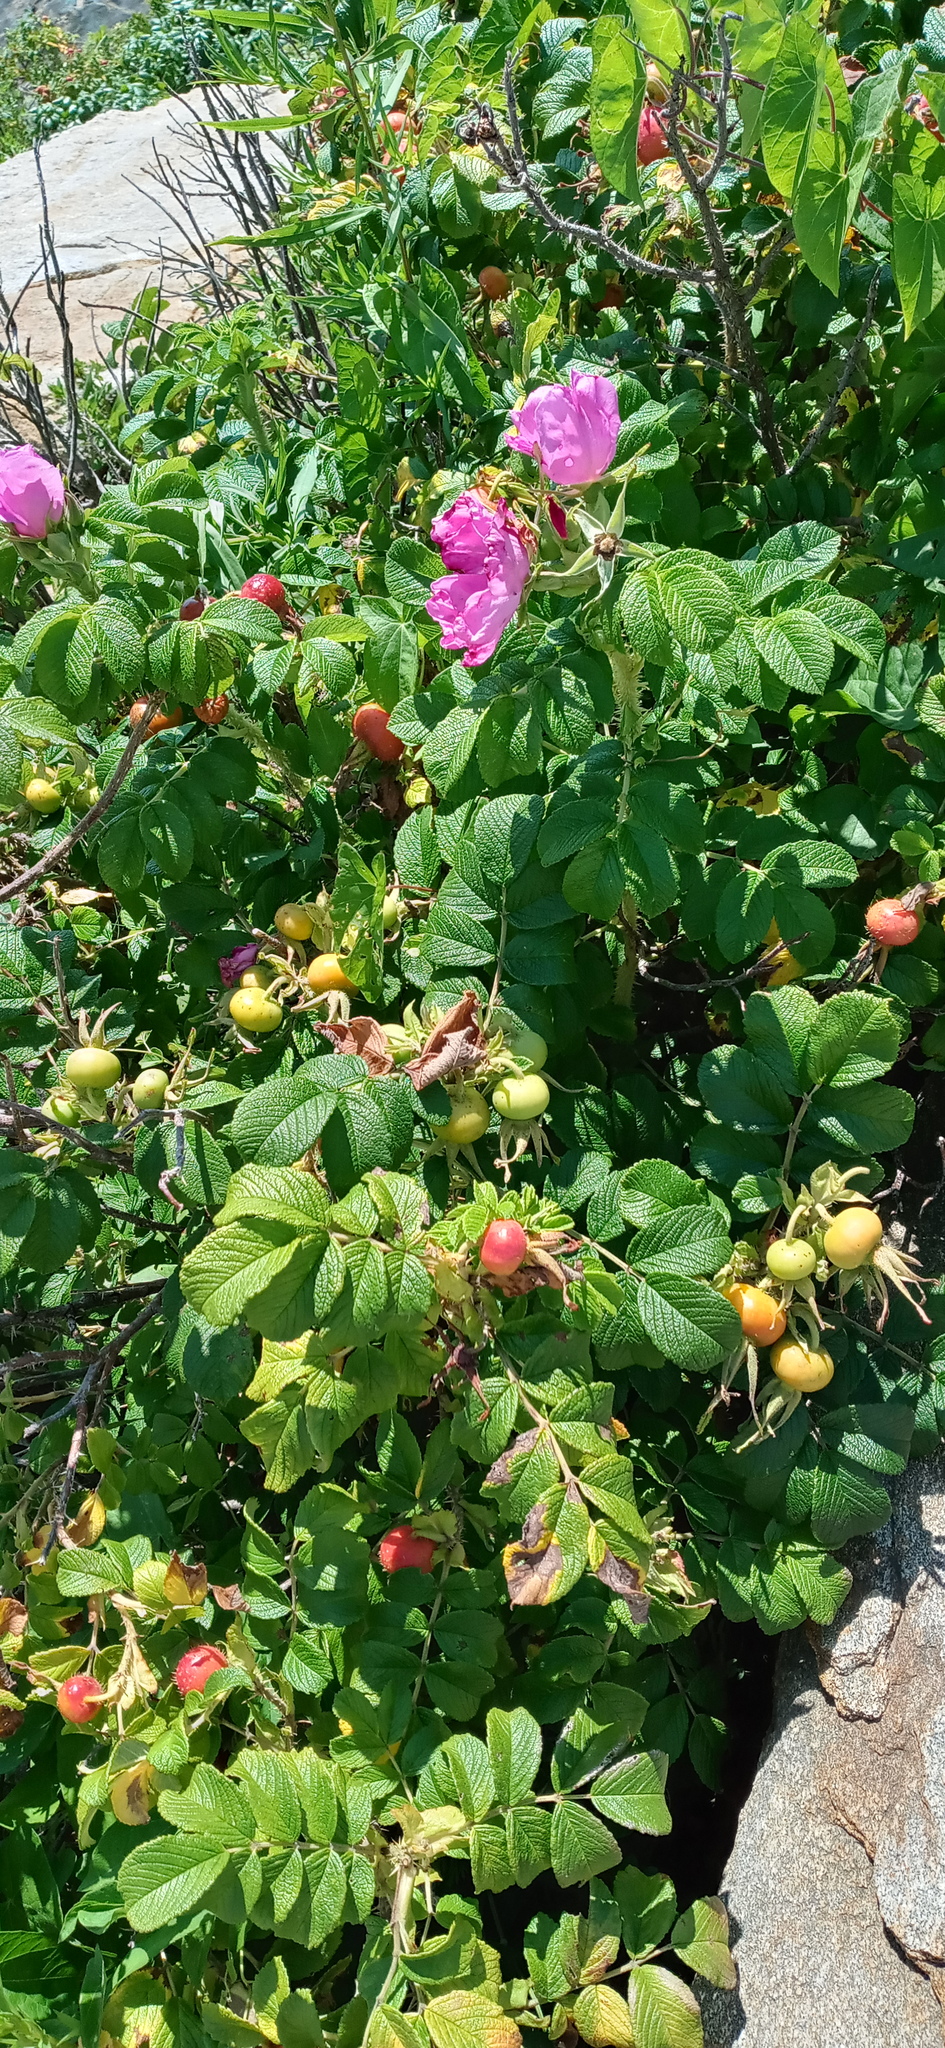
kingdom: Plantae
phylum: Tracheophyta
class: Magnoliopsida
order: Rosales
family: Rosaceae
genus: Rosa
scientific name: Rosa rugosa
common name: Japanese rose
